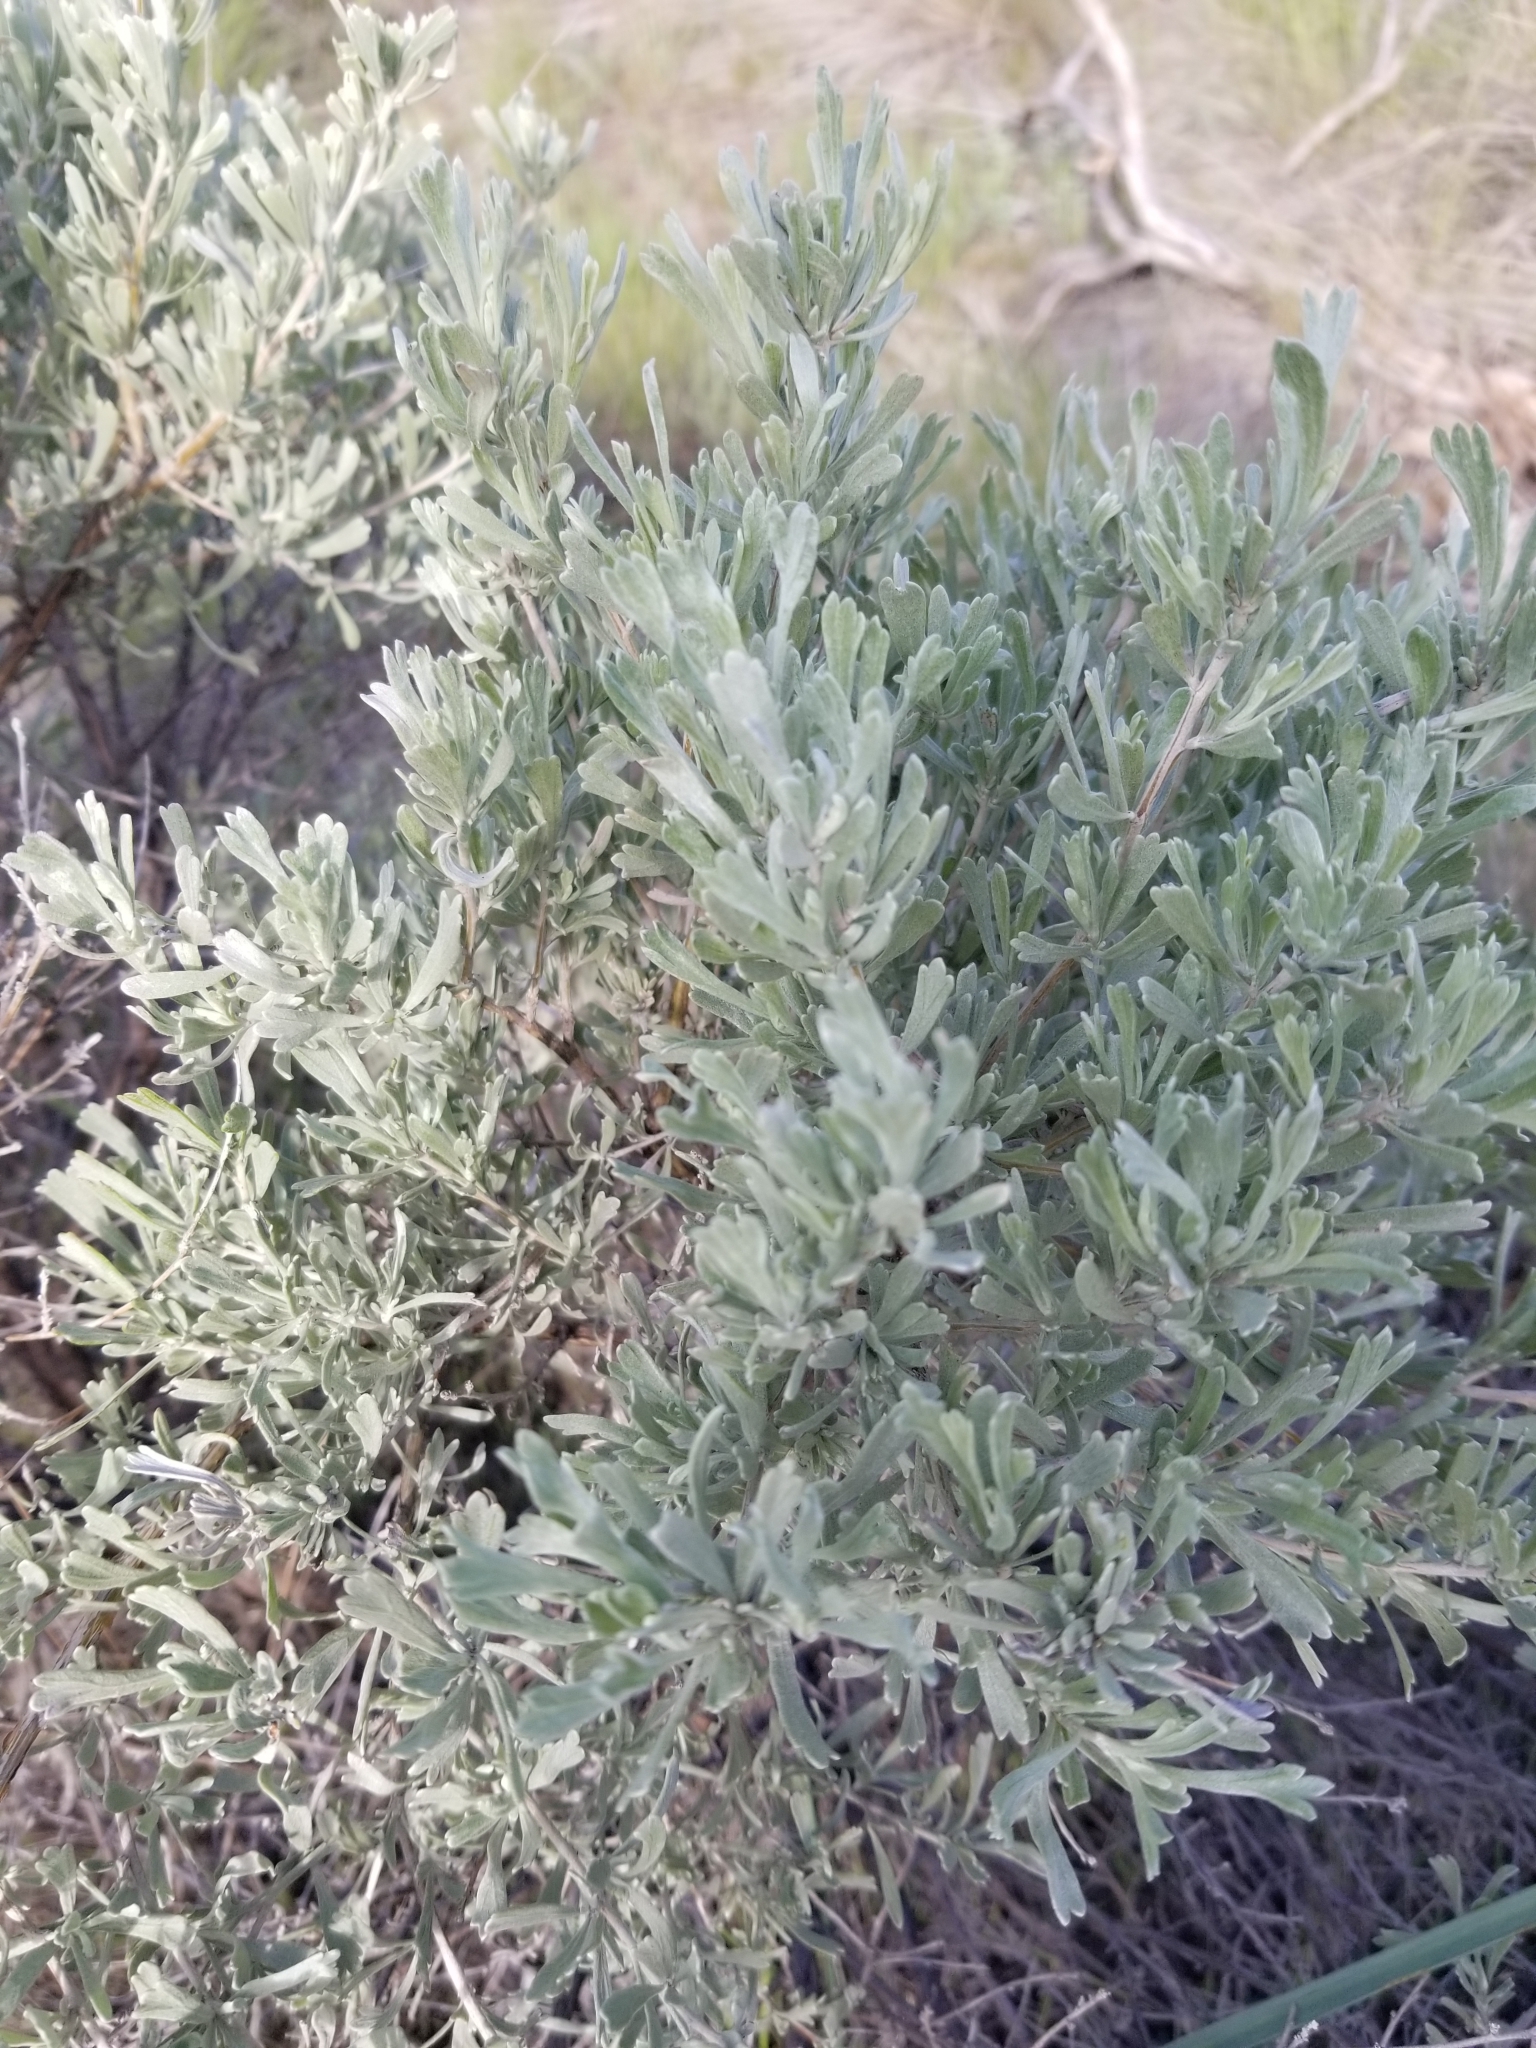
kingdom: Plantae
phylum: Tracheophyta
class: Magnoliopsida
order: Asterales
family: Asteraceae
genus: Artemisia
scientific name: Artemisia tridentata
